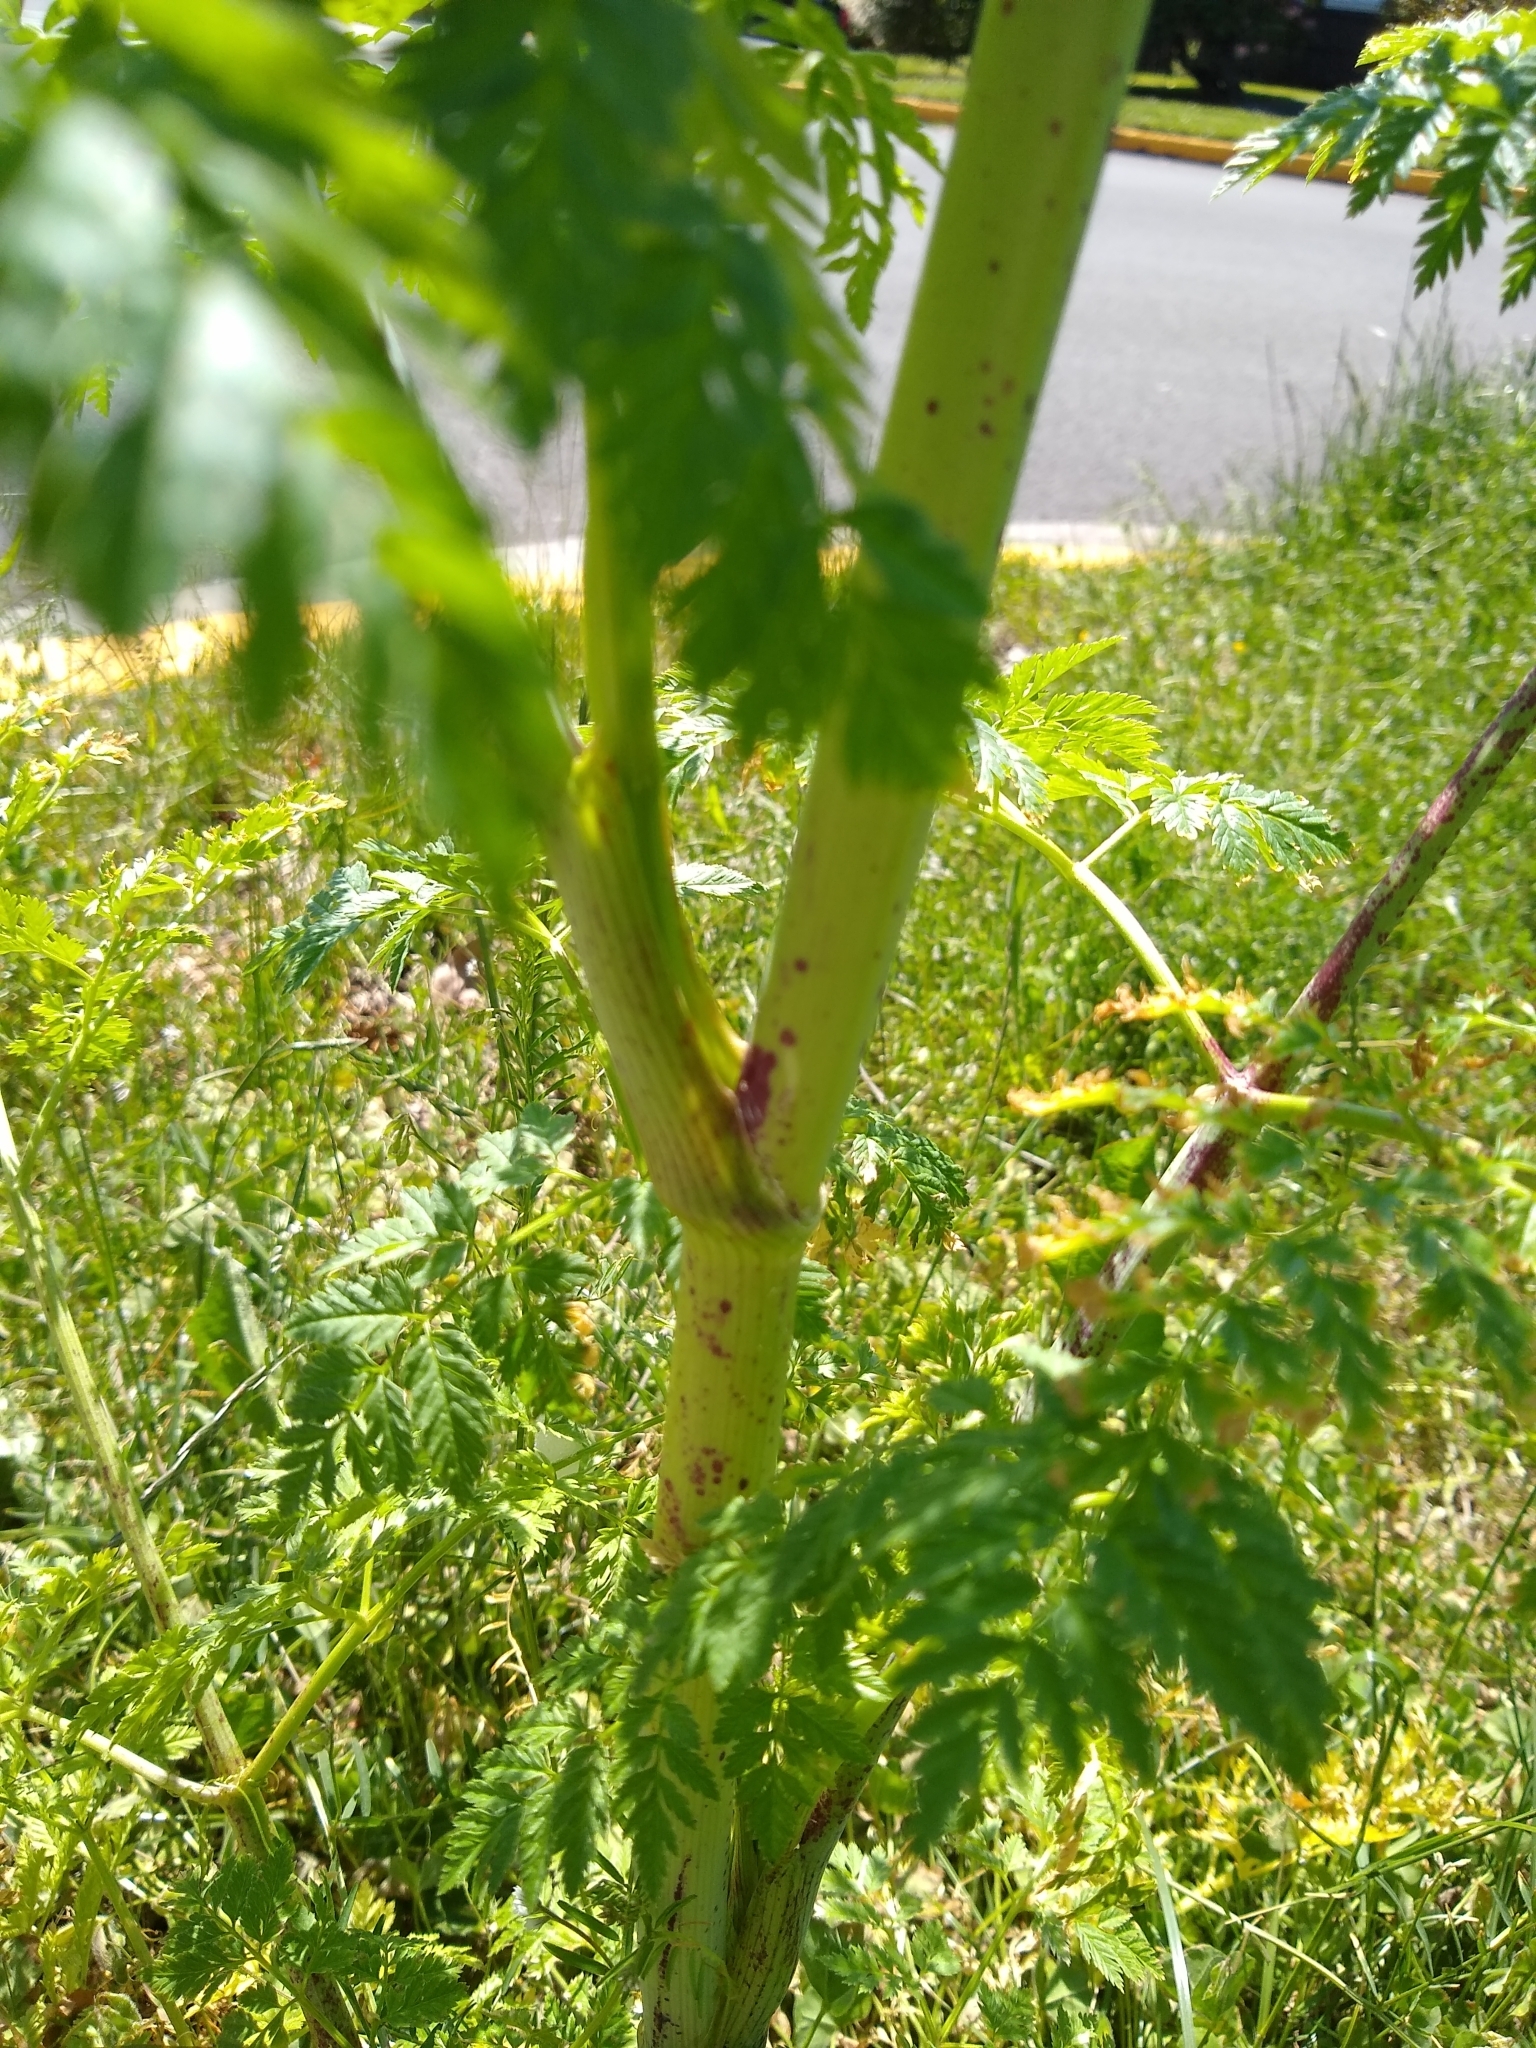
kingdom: Plantae
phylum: Tracheophyta
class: Magnoliopsida
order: Apiales
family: Apiaceae
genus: Conium
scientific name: Conium maculatum
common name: Hemlock
